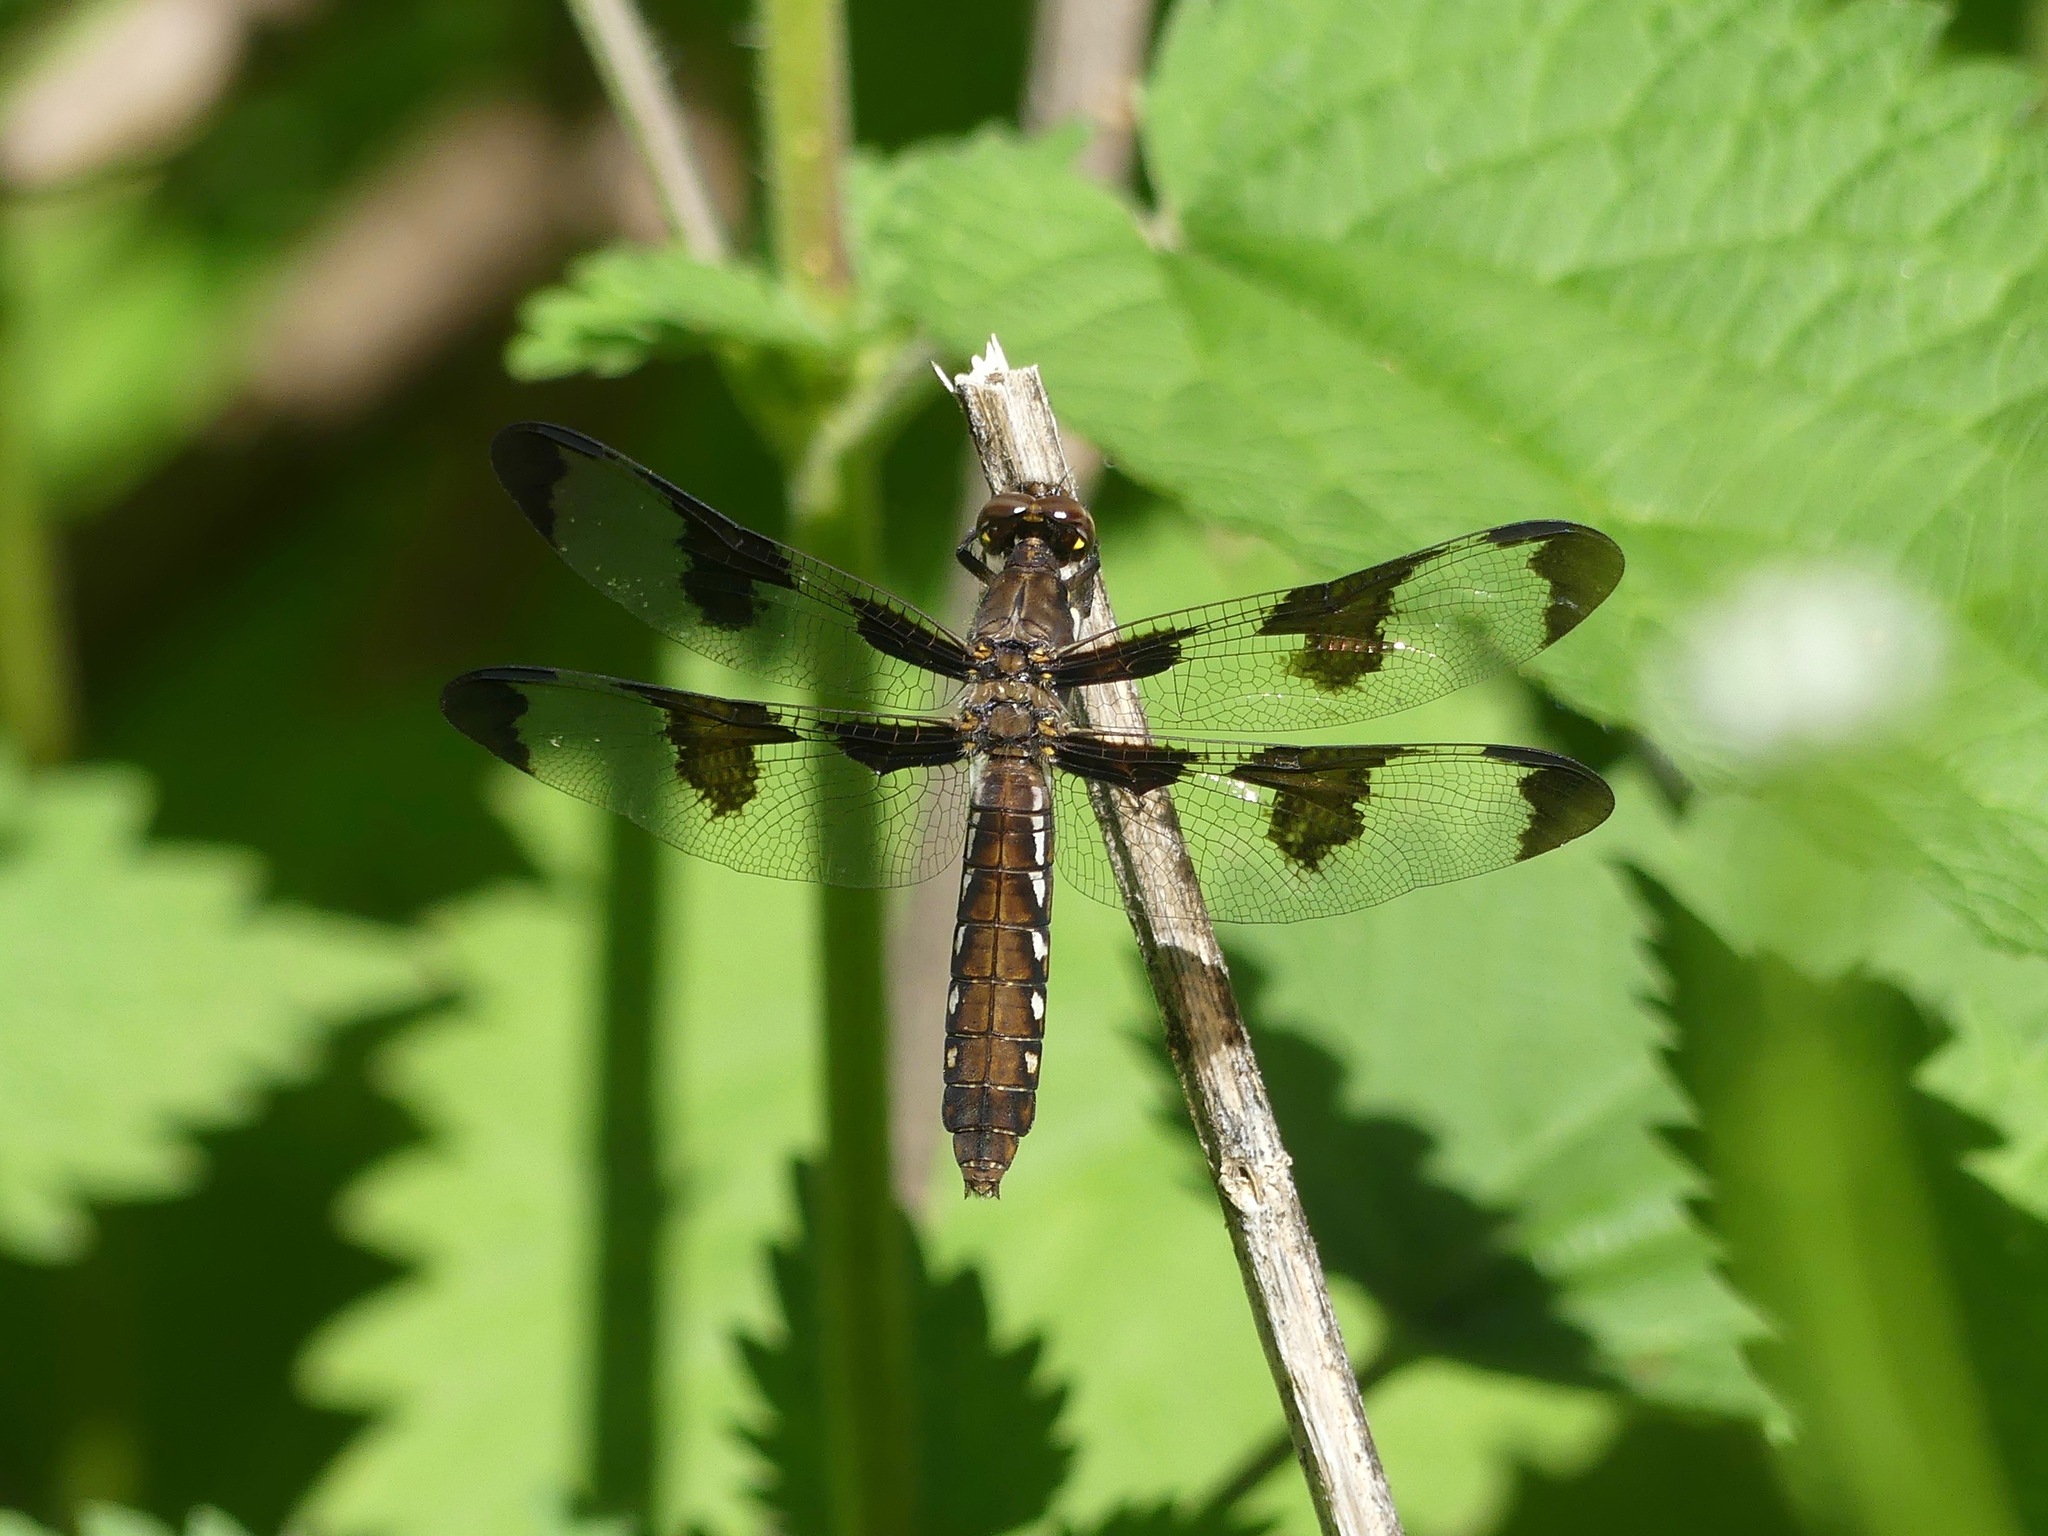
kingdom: Animalia
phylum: Arthropoda
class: Insecta
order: Odonata
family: Libellulidae
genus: Plathemis
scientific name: Plathemis lydia
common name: Common whitetail
